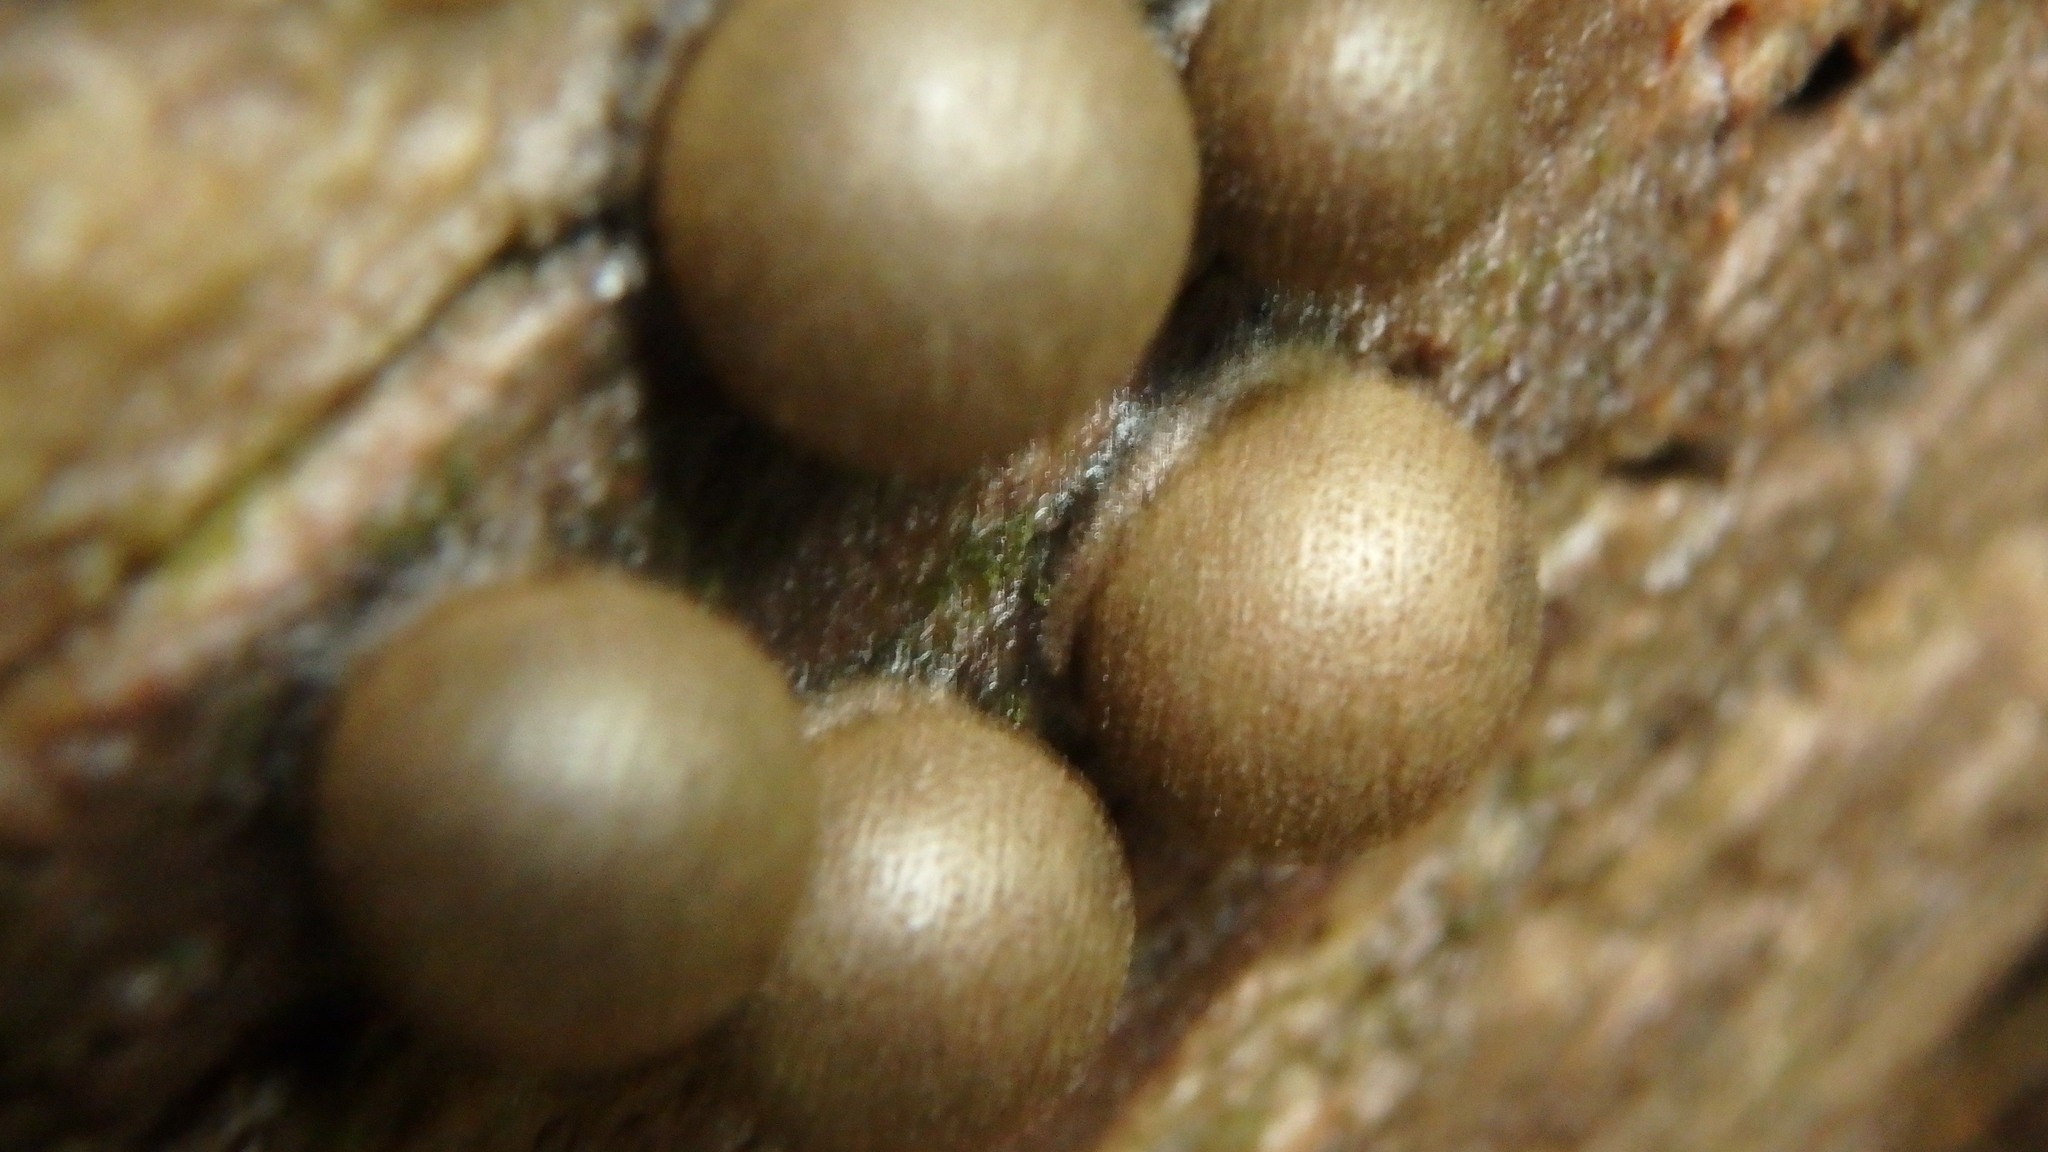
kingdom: Protozoa
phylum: Mycetozoa
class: Myxomycetes
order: Cribrariales
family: Tubiferaceae
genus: Lycogala
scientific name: Lycogala epidendrum
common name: Wolf's milk
